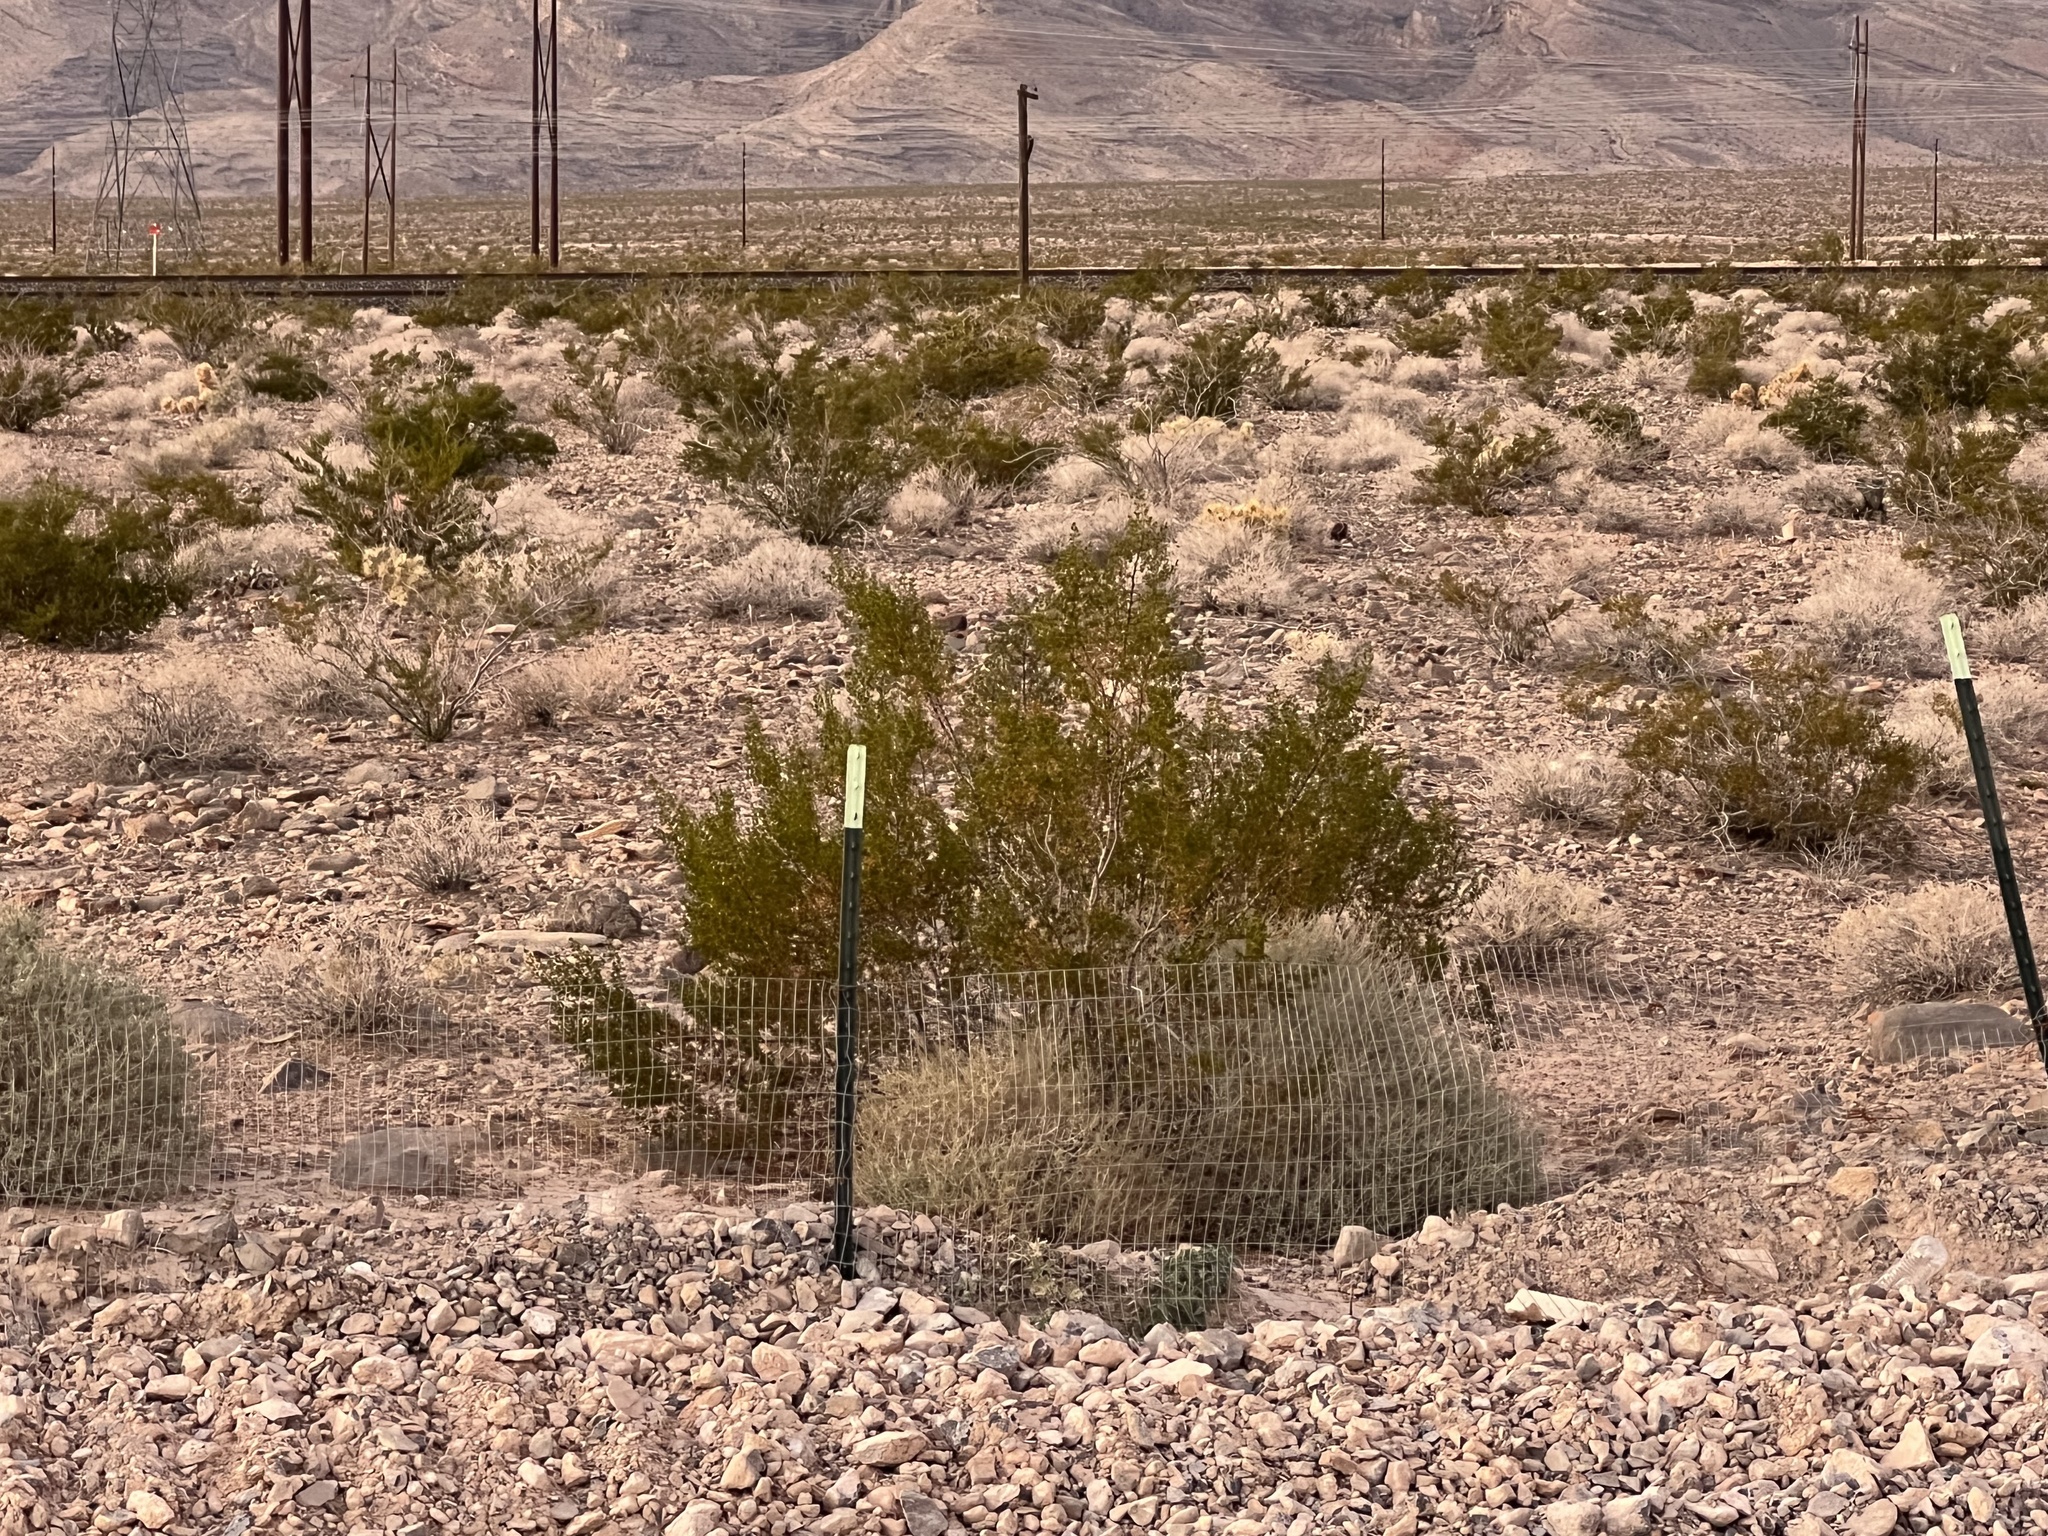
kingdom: Plantae
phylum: Tracheophyta
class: Magnoliopsida
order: Zygophyllales
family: Zygophyllaceae
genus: Larrea
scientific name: Larrea tridentata
